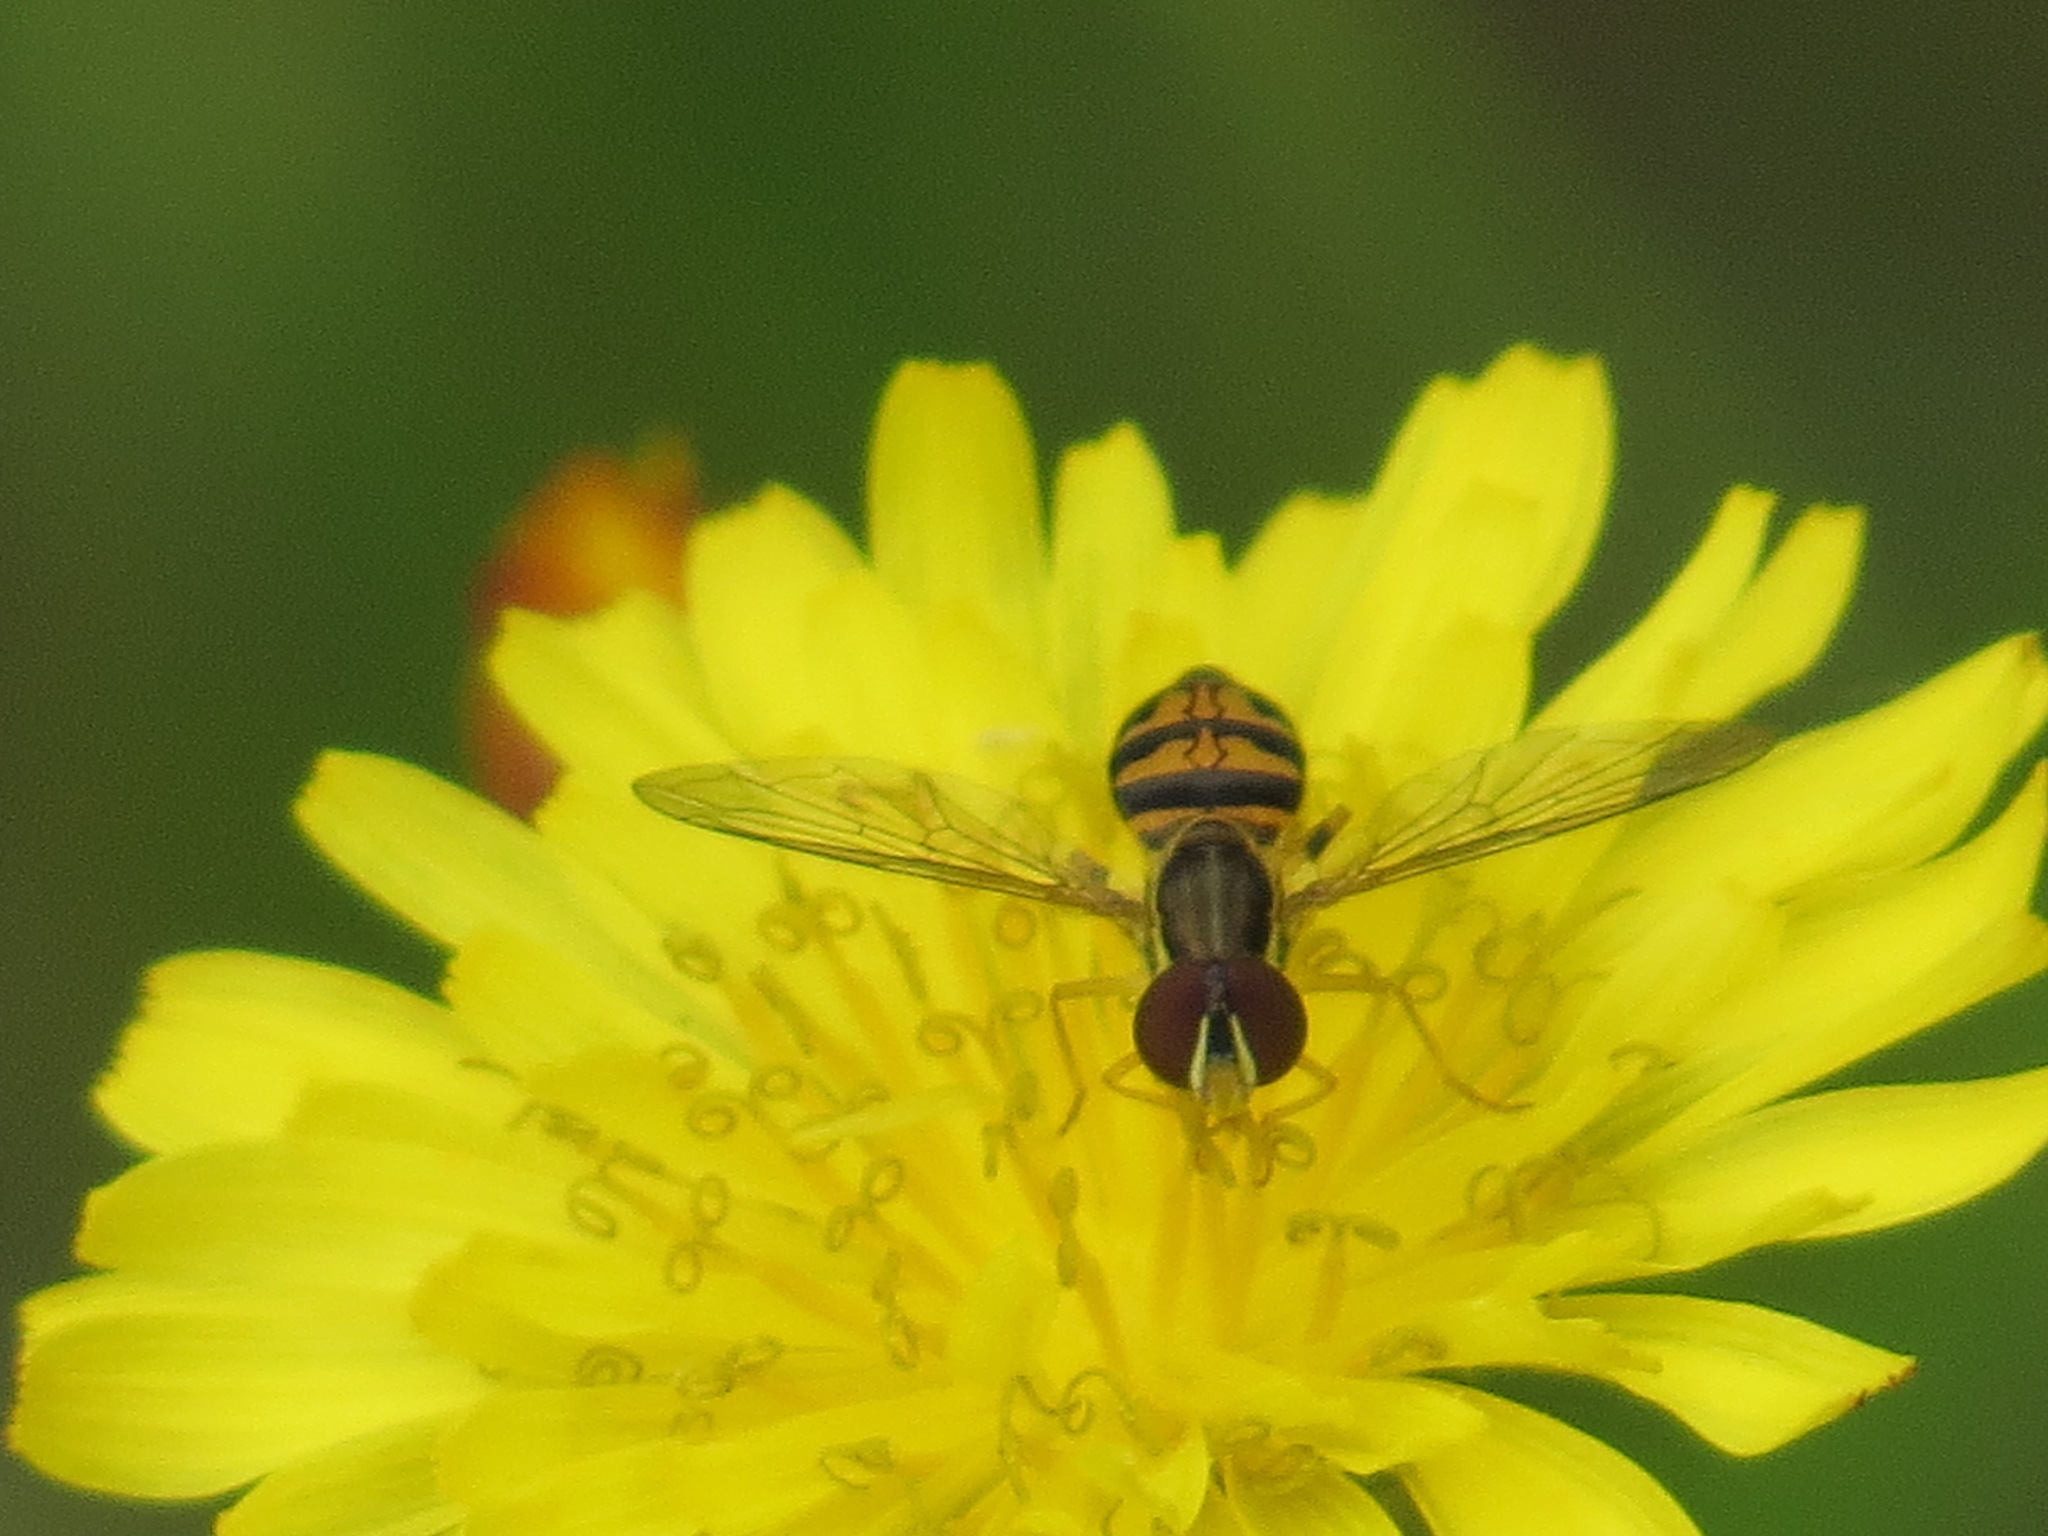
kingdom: Animalia
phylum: Arthropoda
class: Insecta
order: Diptera
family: Syrphidae
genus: Toxomerus
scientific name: Toxomerus occidentalis
